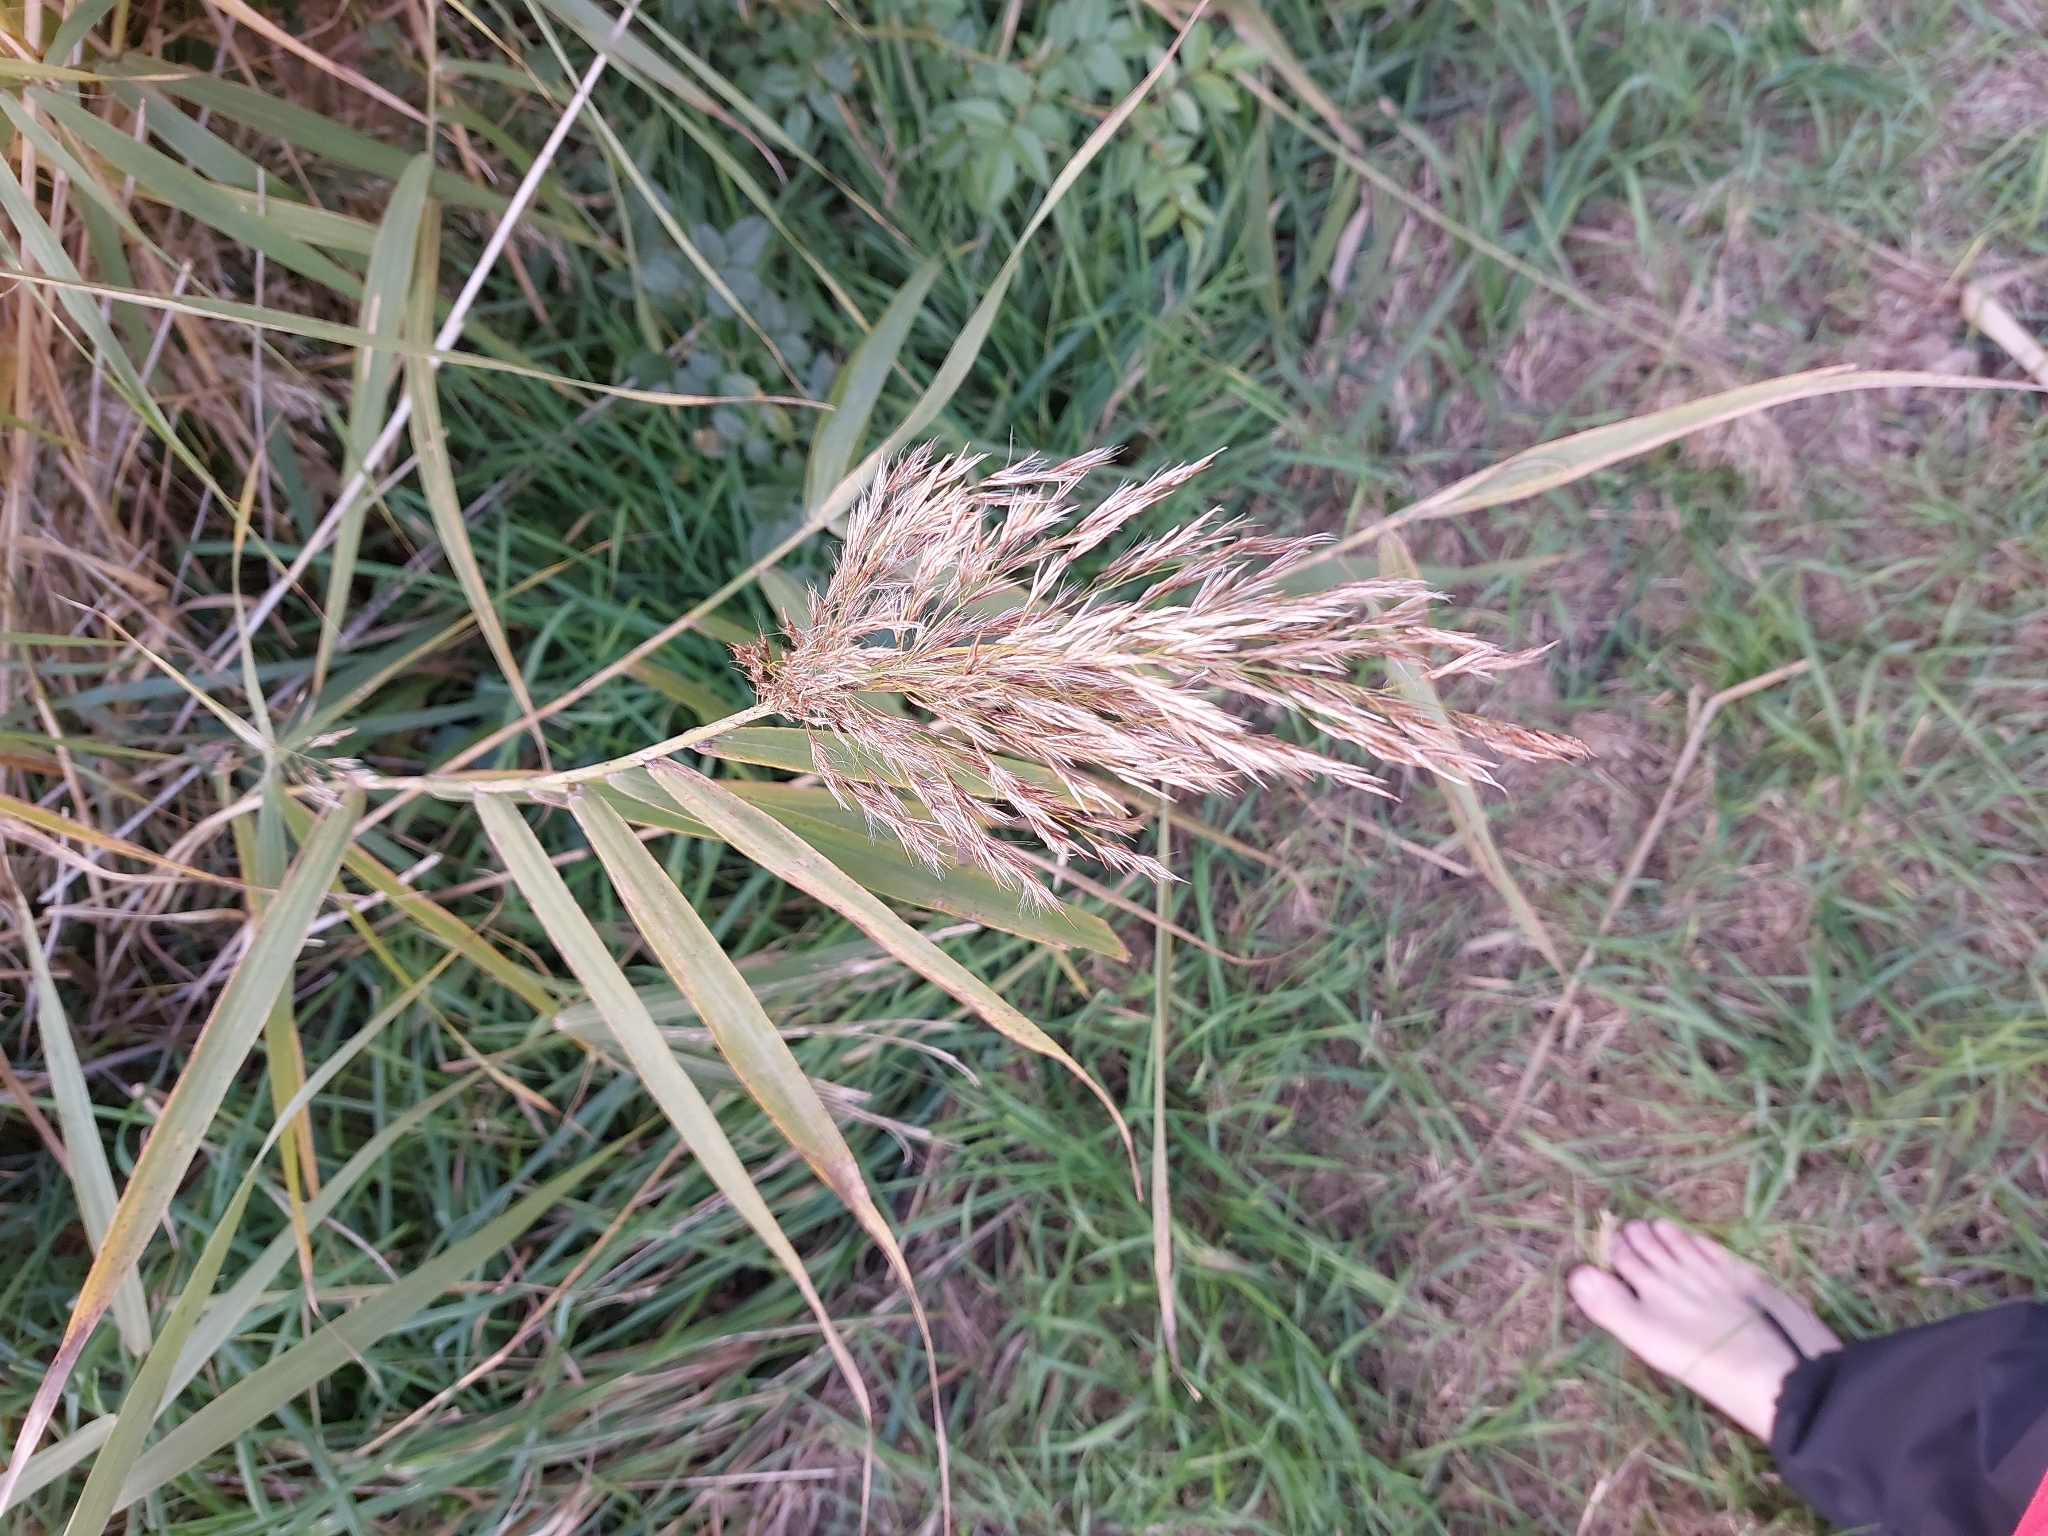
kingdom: Plantae
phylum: Tracheophyta
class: Liliopsida
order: Poales
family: Poaceae
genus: Phragmites
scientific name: Phragmites australis
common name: Common reed
